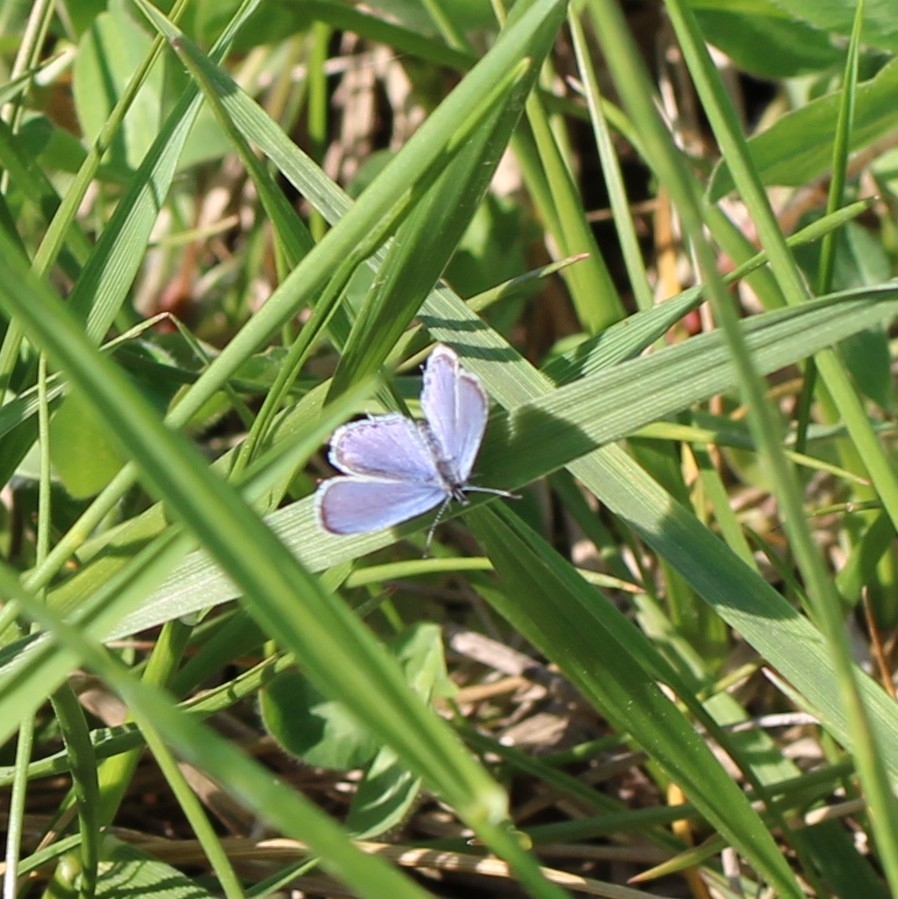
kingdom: Animalia
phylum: Arthropoda
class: Insecta
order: Lepidoptera
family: Lycaenidae
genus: Elkalyce
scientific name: Elkalyce comyntas
